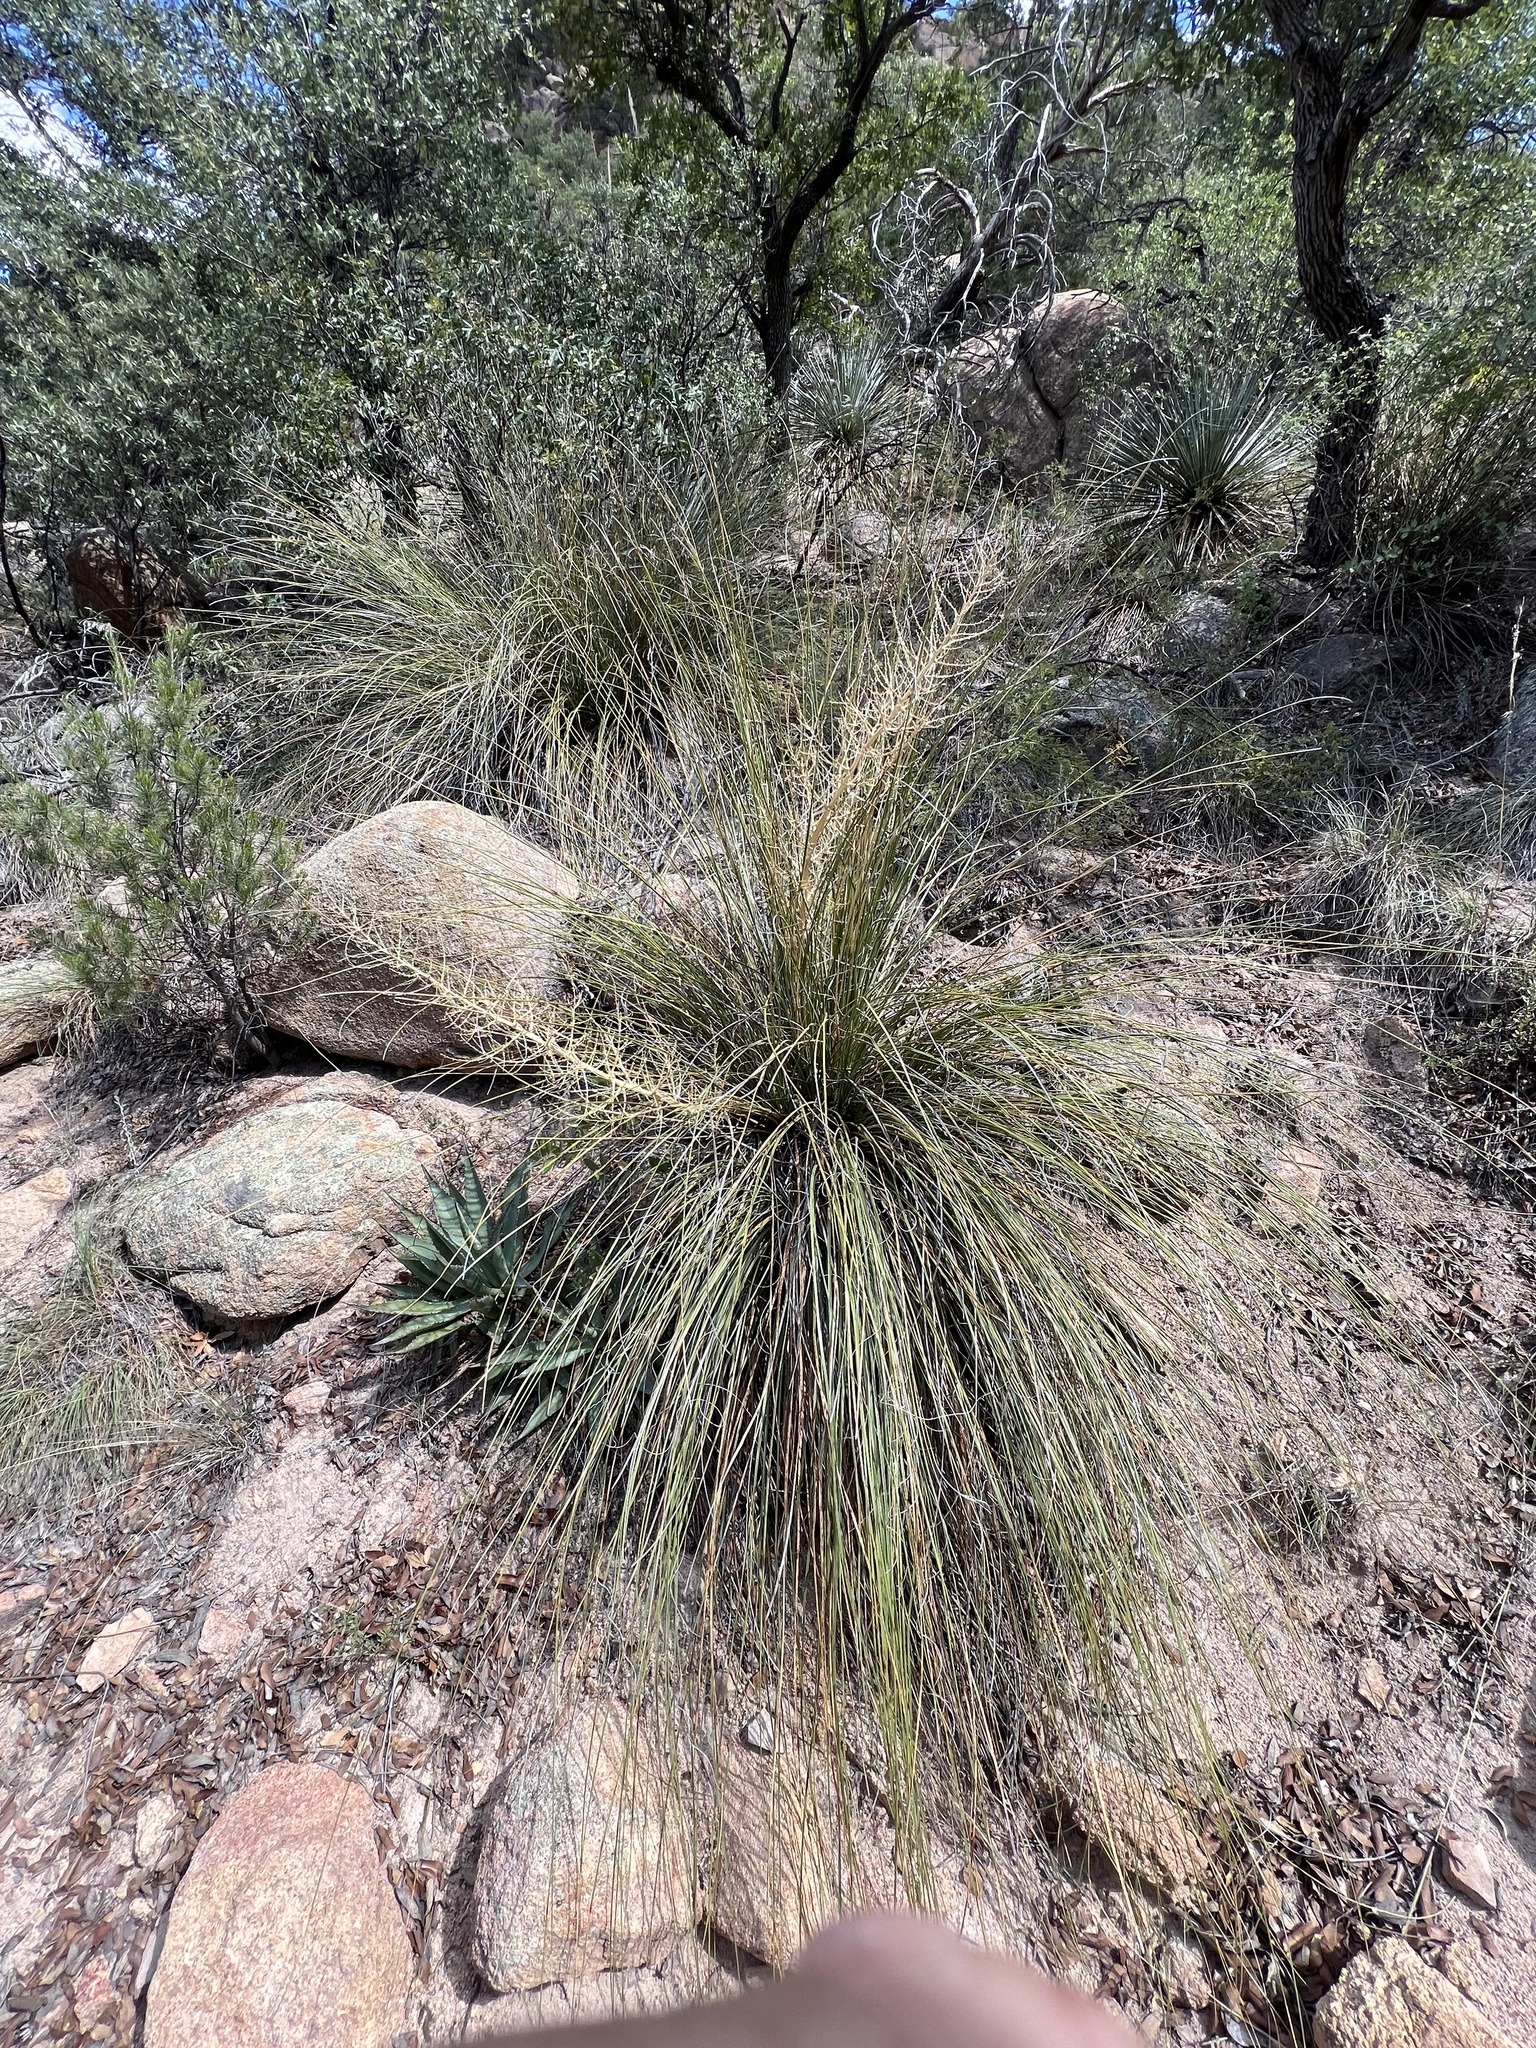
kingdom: Plantae
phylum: Tracheophyta
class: Liliopsida
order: Asparagales
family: Asparagaceae
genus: Nolina
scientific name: Nolina microcarpa
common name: Bear-grass
